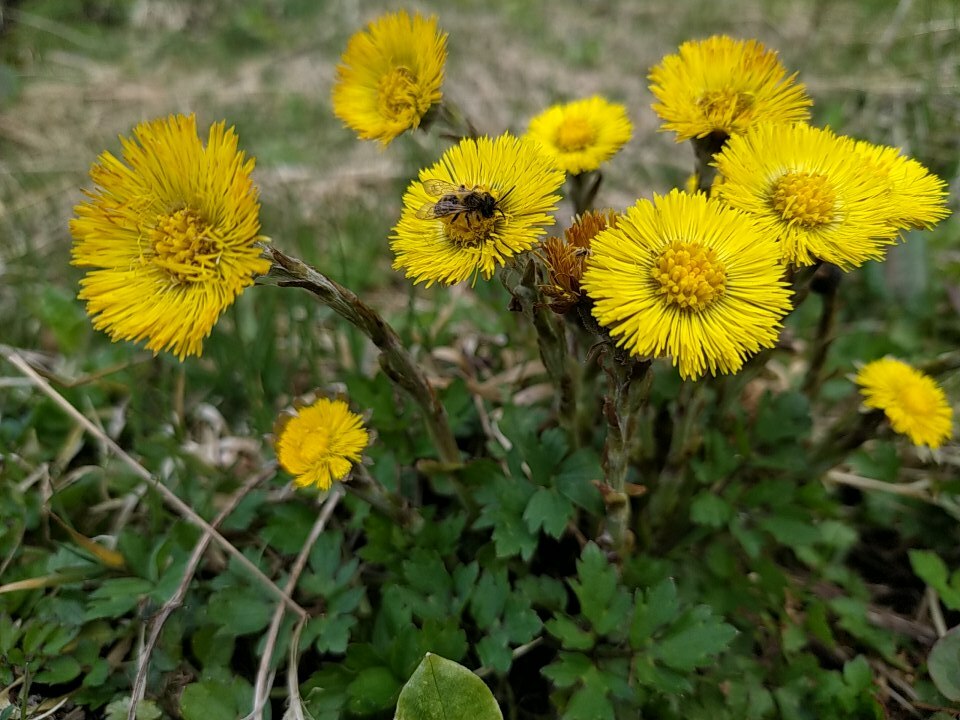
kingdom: Plantae
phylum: Tracheophyta
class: Magnoliopsida
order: Asterales
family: Asteraceae
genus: Tussilago
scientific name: Tussilago farfara
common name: Coltsfoot
